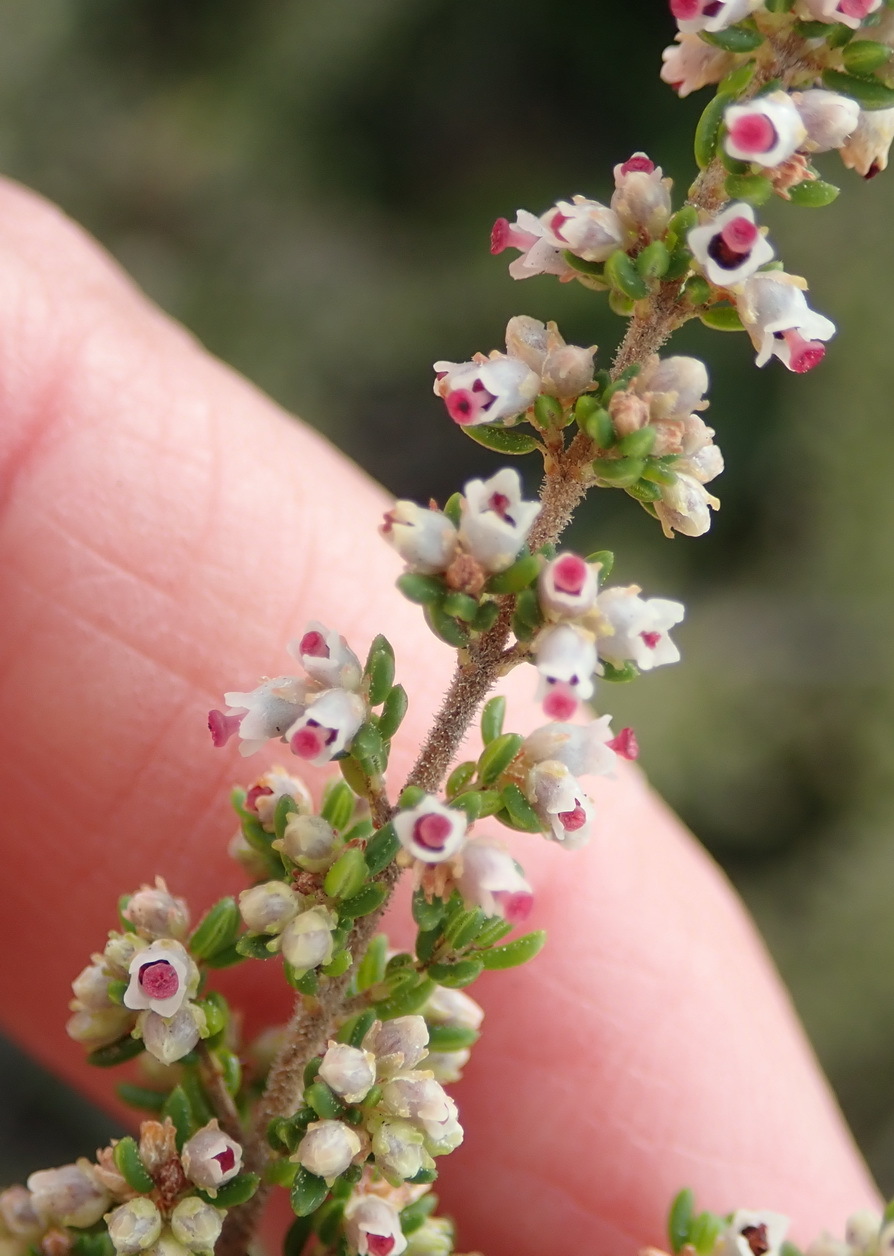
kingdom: Plantae
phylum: Tracheophyta
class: Magnoliopsida
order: Ericales
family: Ericaceae
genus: Erica
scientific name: Erica cordata
